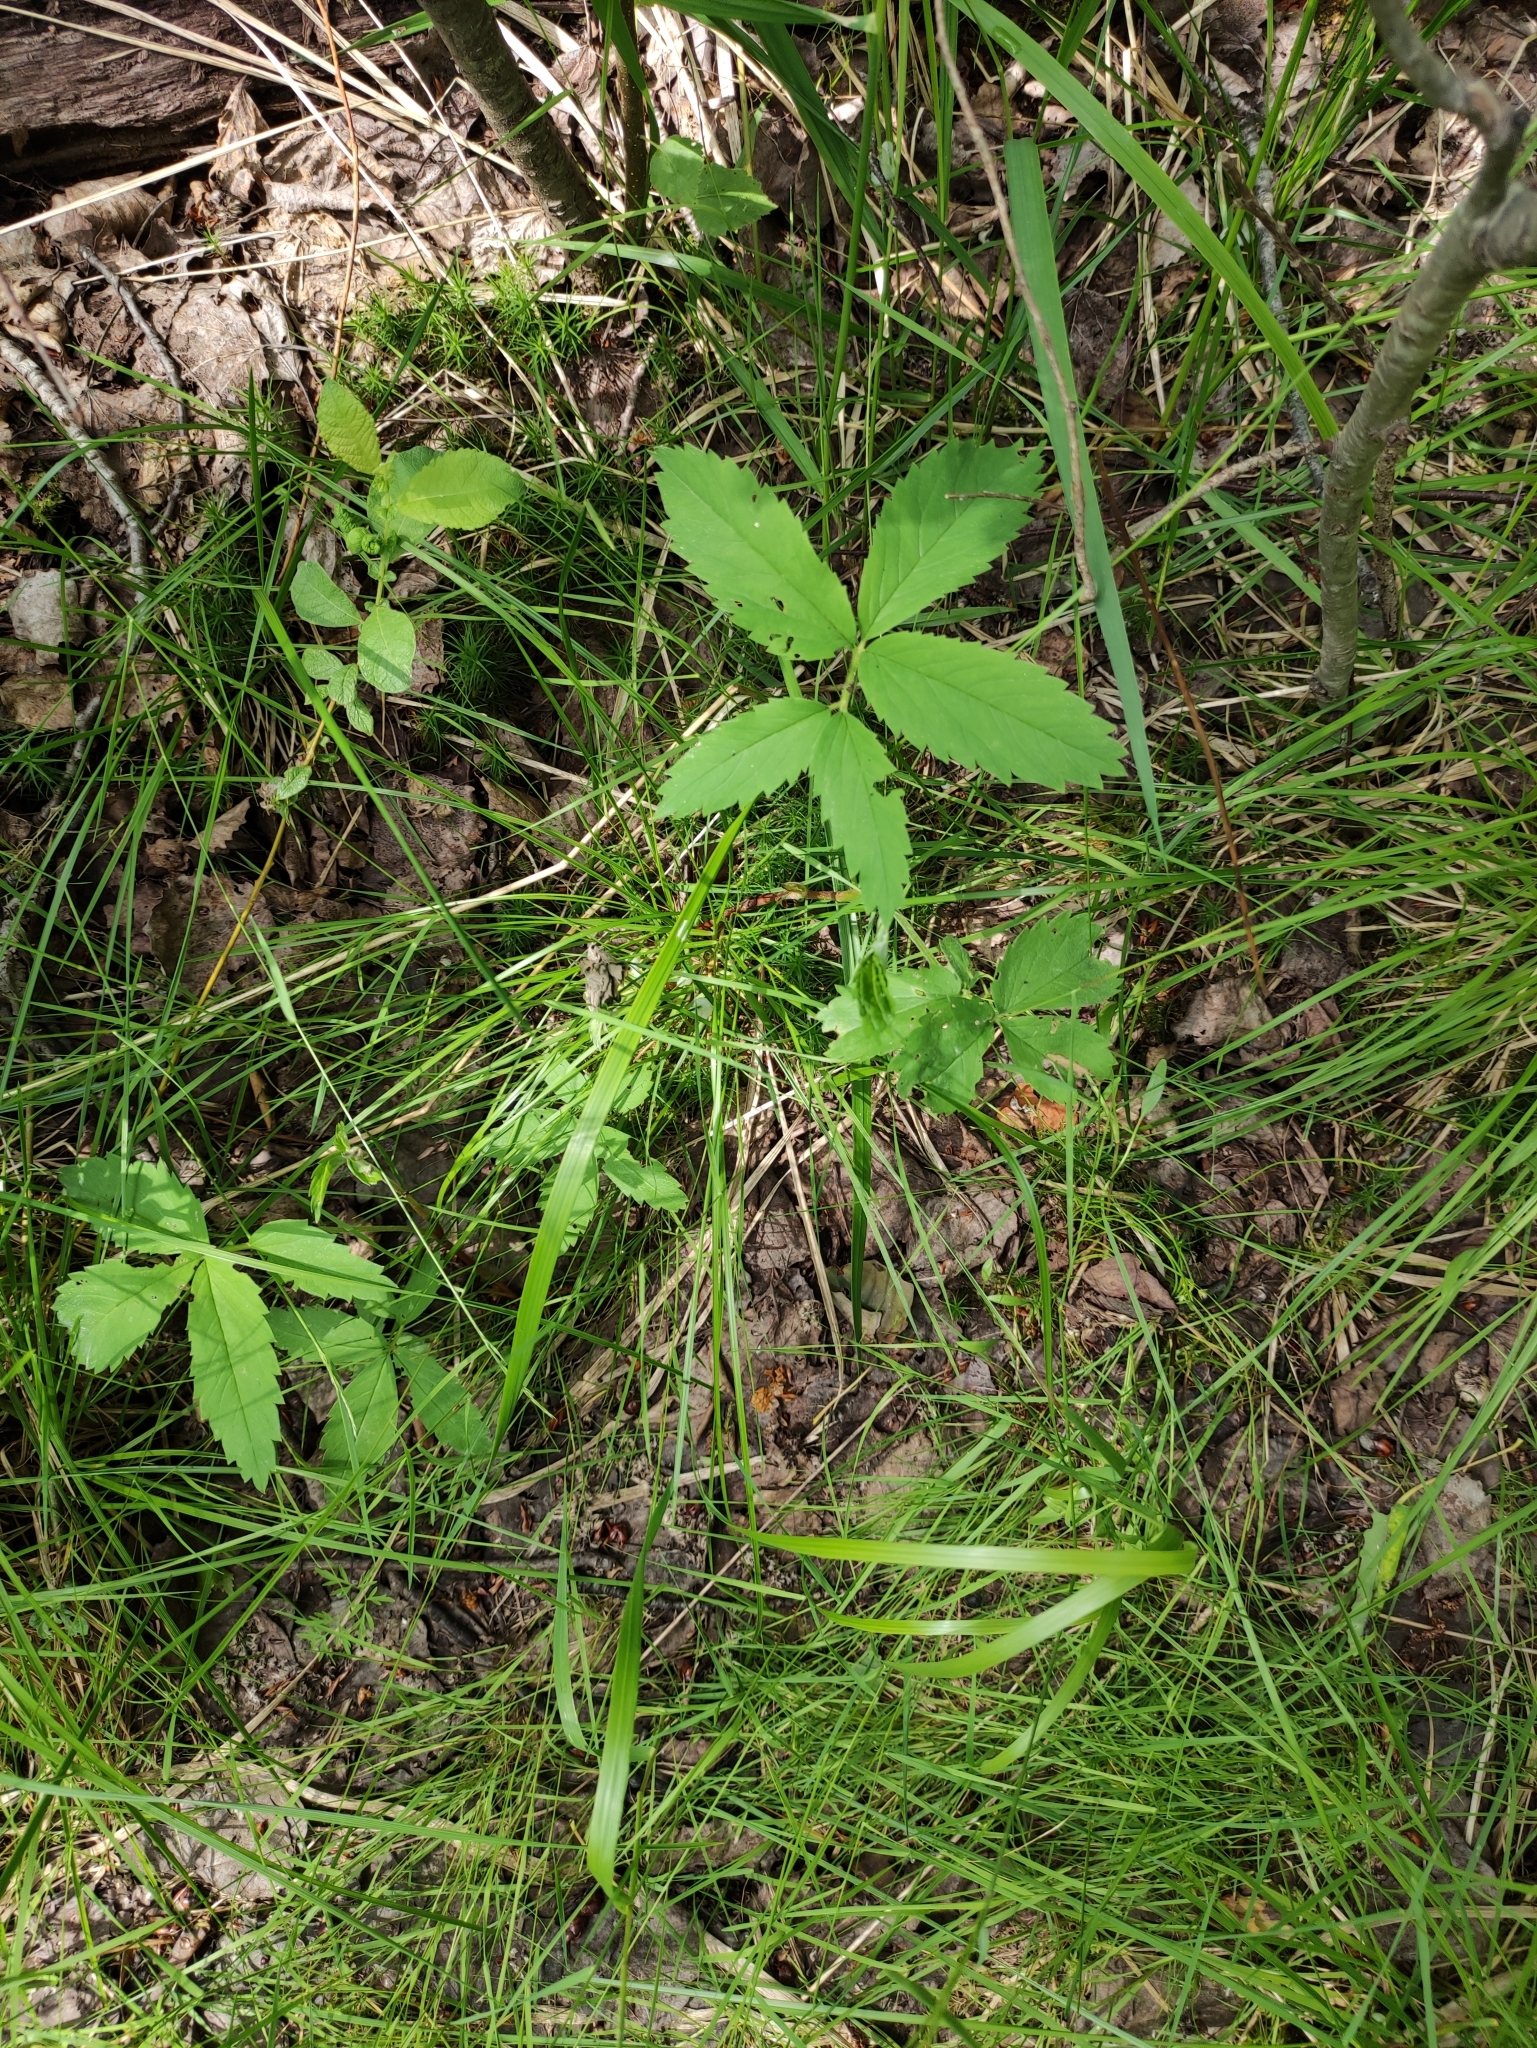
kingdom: Plantae
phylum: Tracheophyta
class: Magnoliopsida
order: Rosales
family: Rosaceae
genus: Comarum
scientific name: Comarum palustre
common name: Marsh cinquefoil
